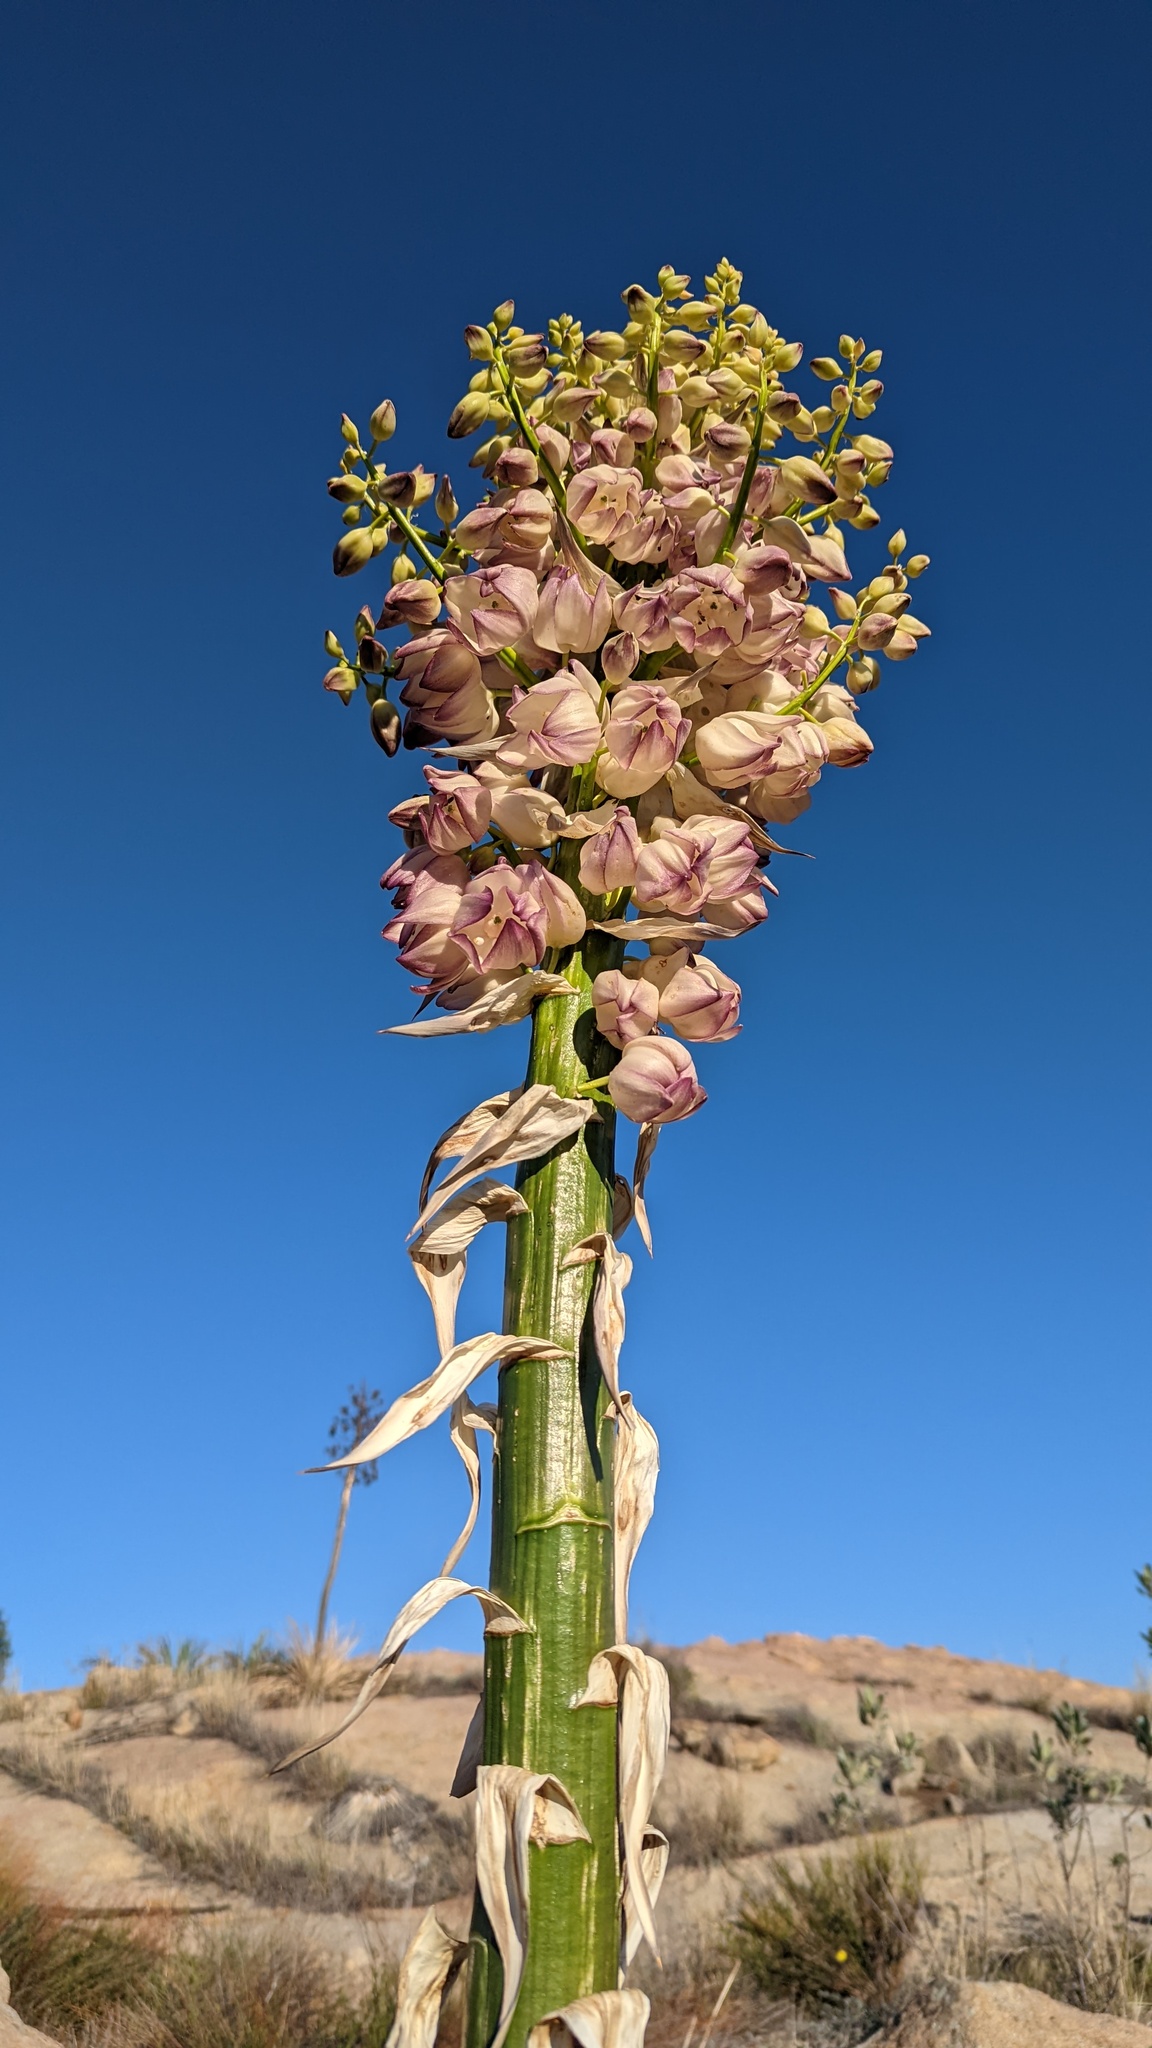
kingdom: Plantae
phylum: Tracheophyta
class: Liliopsida
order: Asparagales
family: Asparagaceae
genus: Hesperoyucca
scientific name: Hesperoyucca whipplei
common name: Our lord's-candle
